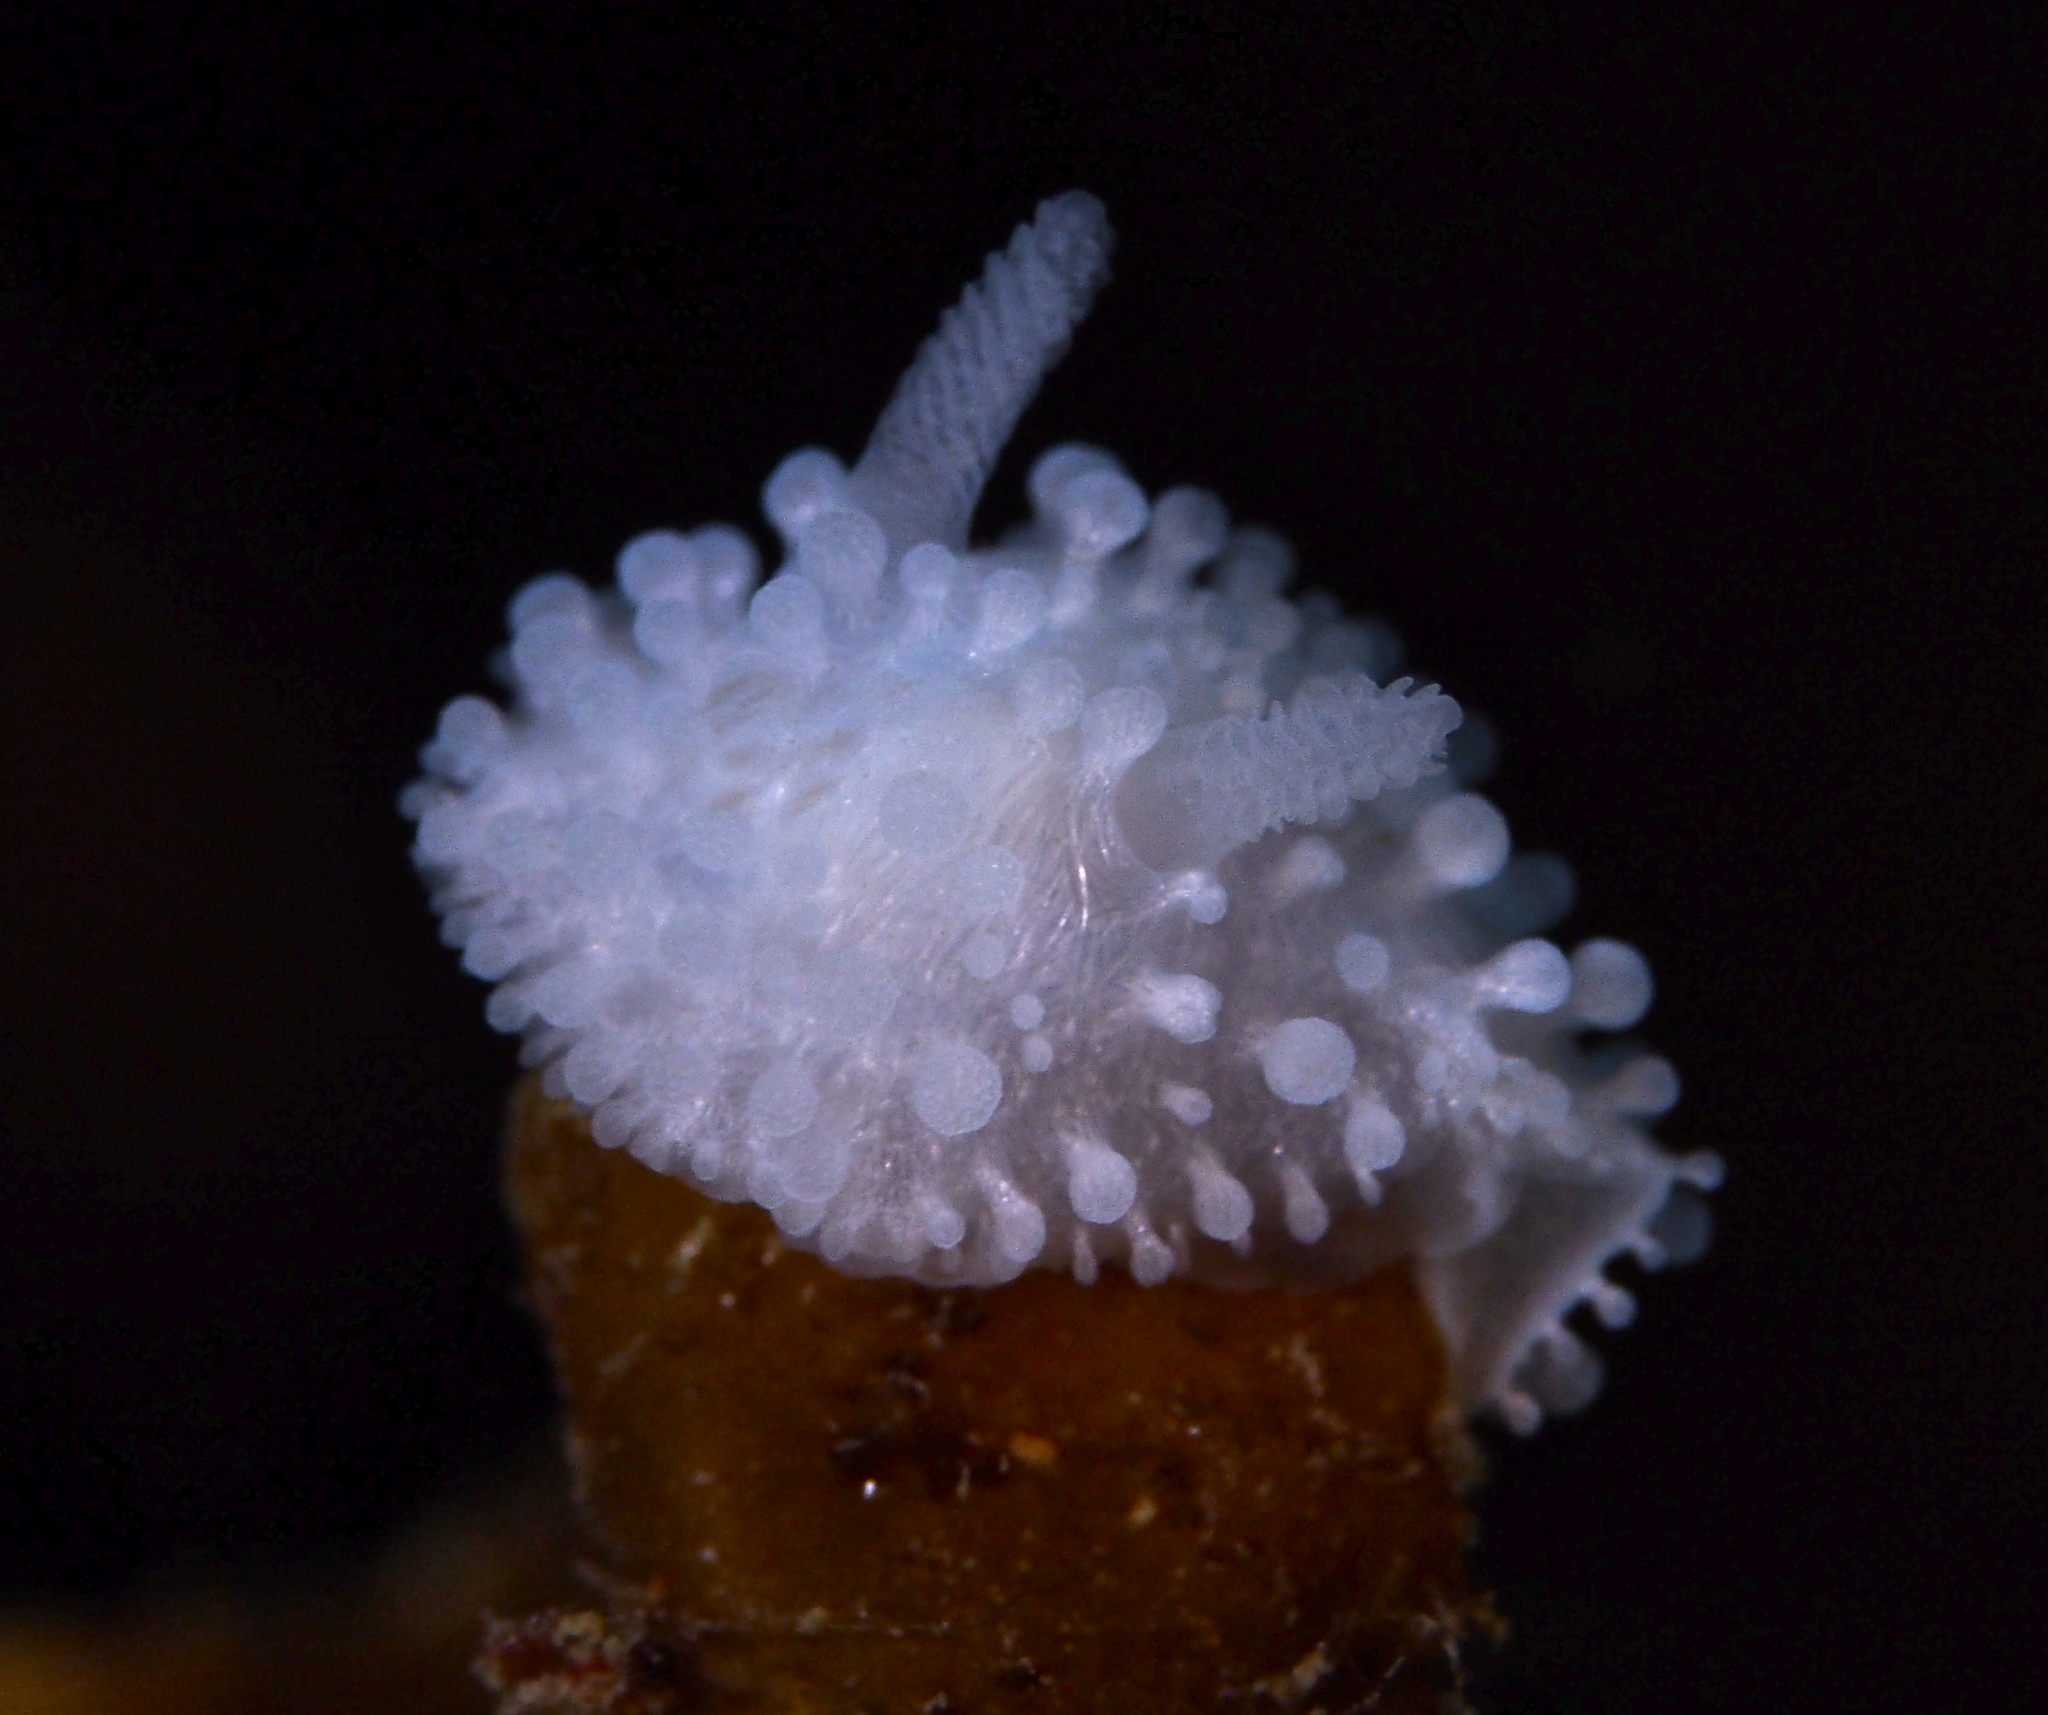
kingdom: Animalia
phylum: Mollusca
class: Gastropoda
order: Nudibranchia
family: Onchidorididae
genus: Onchidoris
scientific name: Onchidoris muricata
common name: Rough doris
